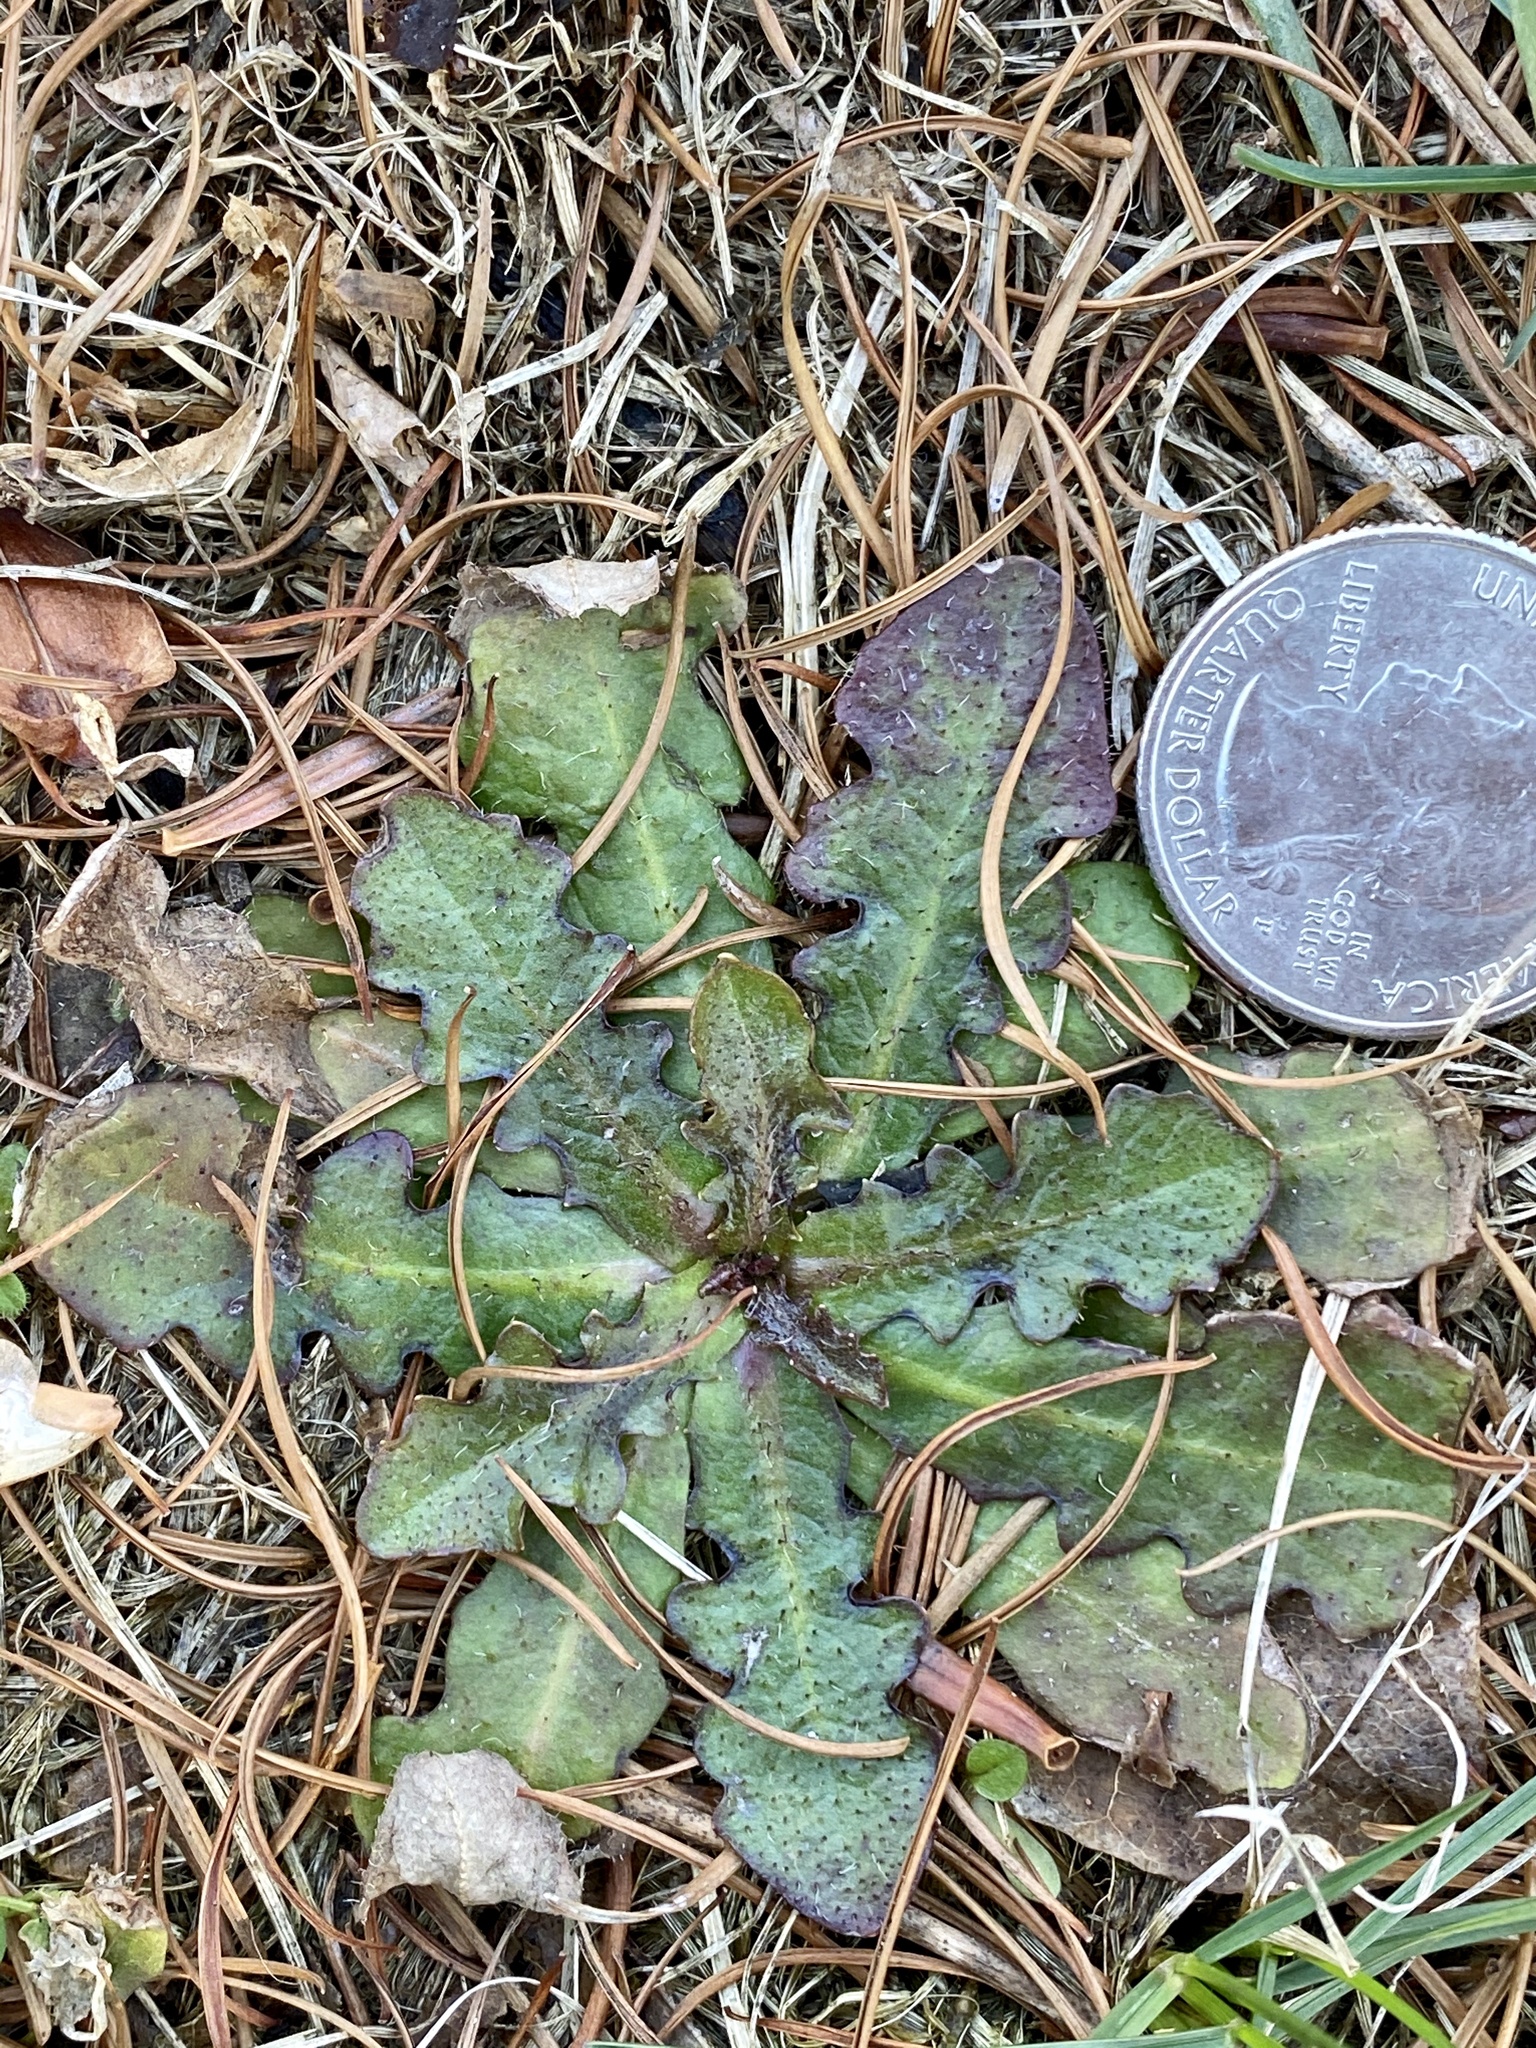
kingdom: Plantae
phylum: Tracheophyta
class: Magnoliopsida
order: Asterales
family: Asteraceae
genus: Hypochaeris
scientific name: Hypochaeris radicata
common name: Flatweed
